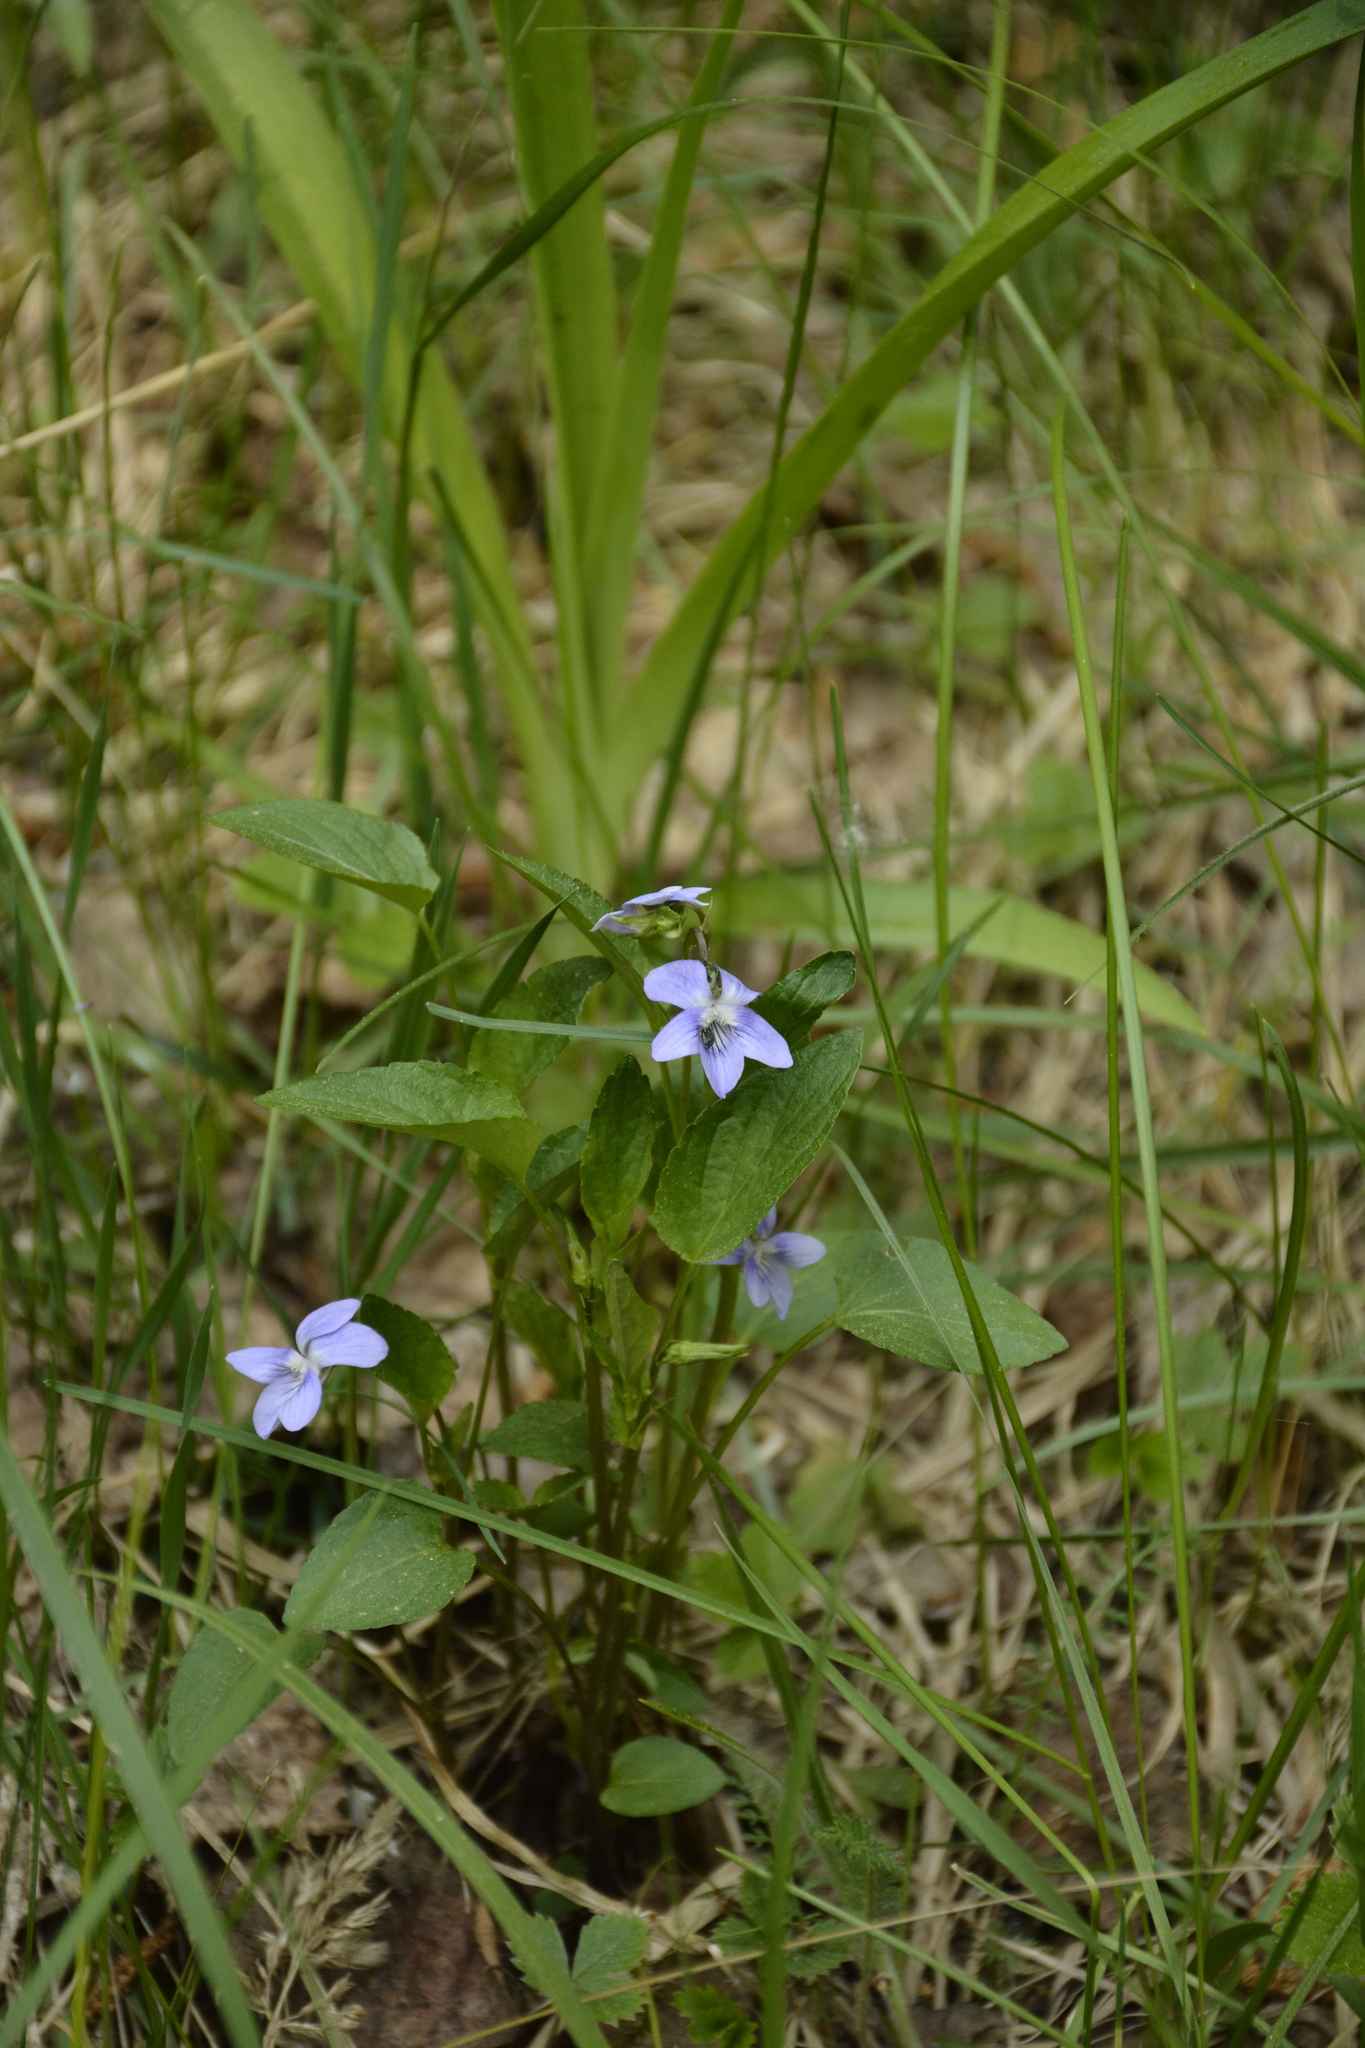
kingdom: Plantae
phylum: Tracheophyta
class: Magnoliopsida
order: Malpighiales
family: Violaceae
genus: Viola
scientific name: Viola
